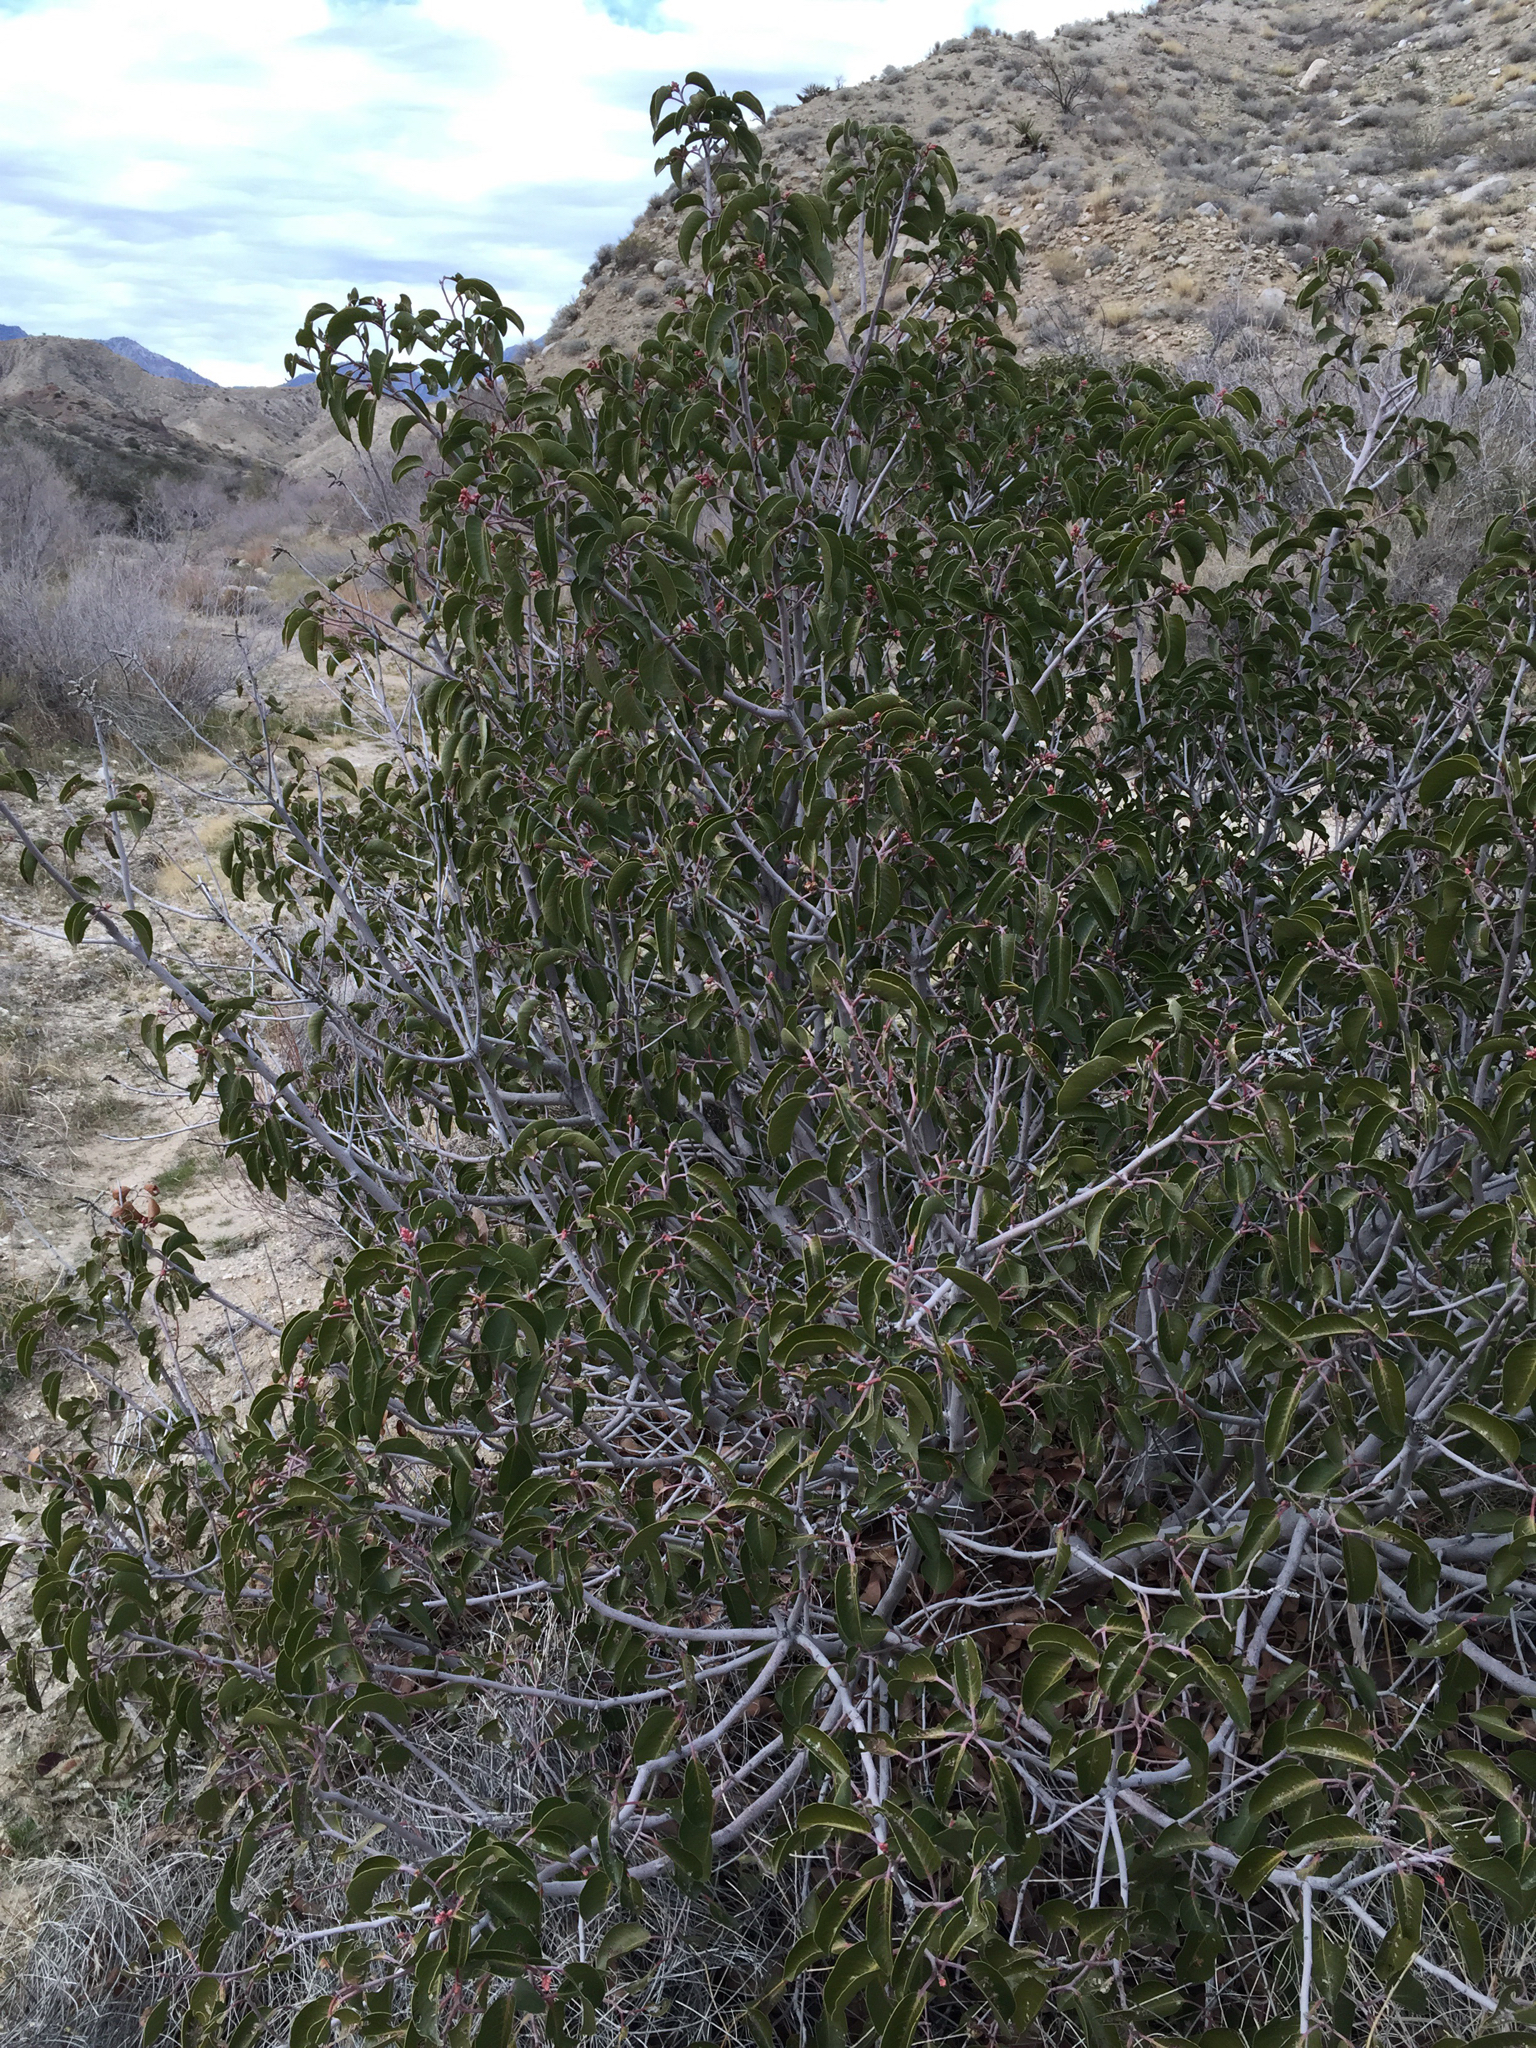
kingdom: Plantae
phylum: Tracheophyta
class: Magnoliopsida
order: Sapindales
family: Anacardiaceae
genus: Rhus
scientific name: Rhus ovata
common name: Sugar sumac
